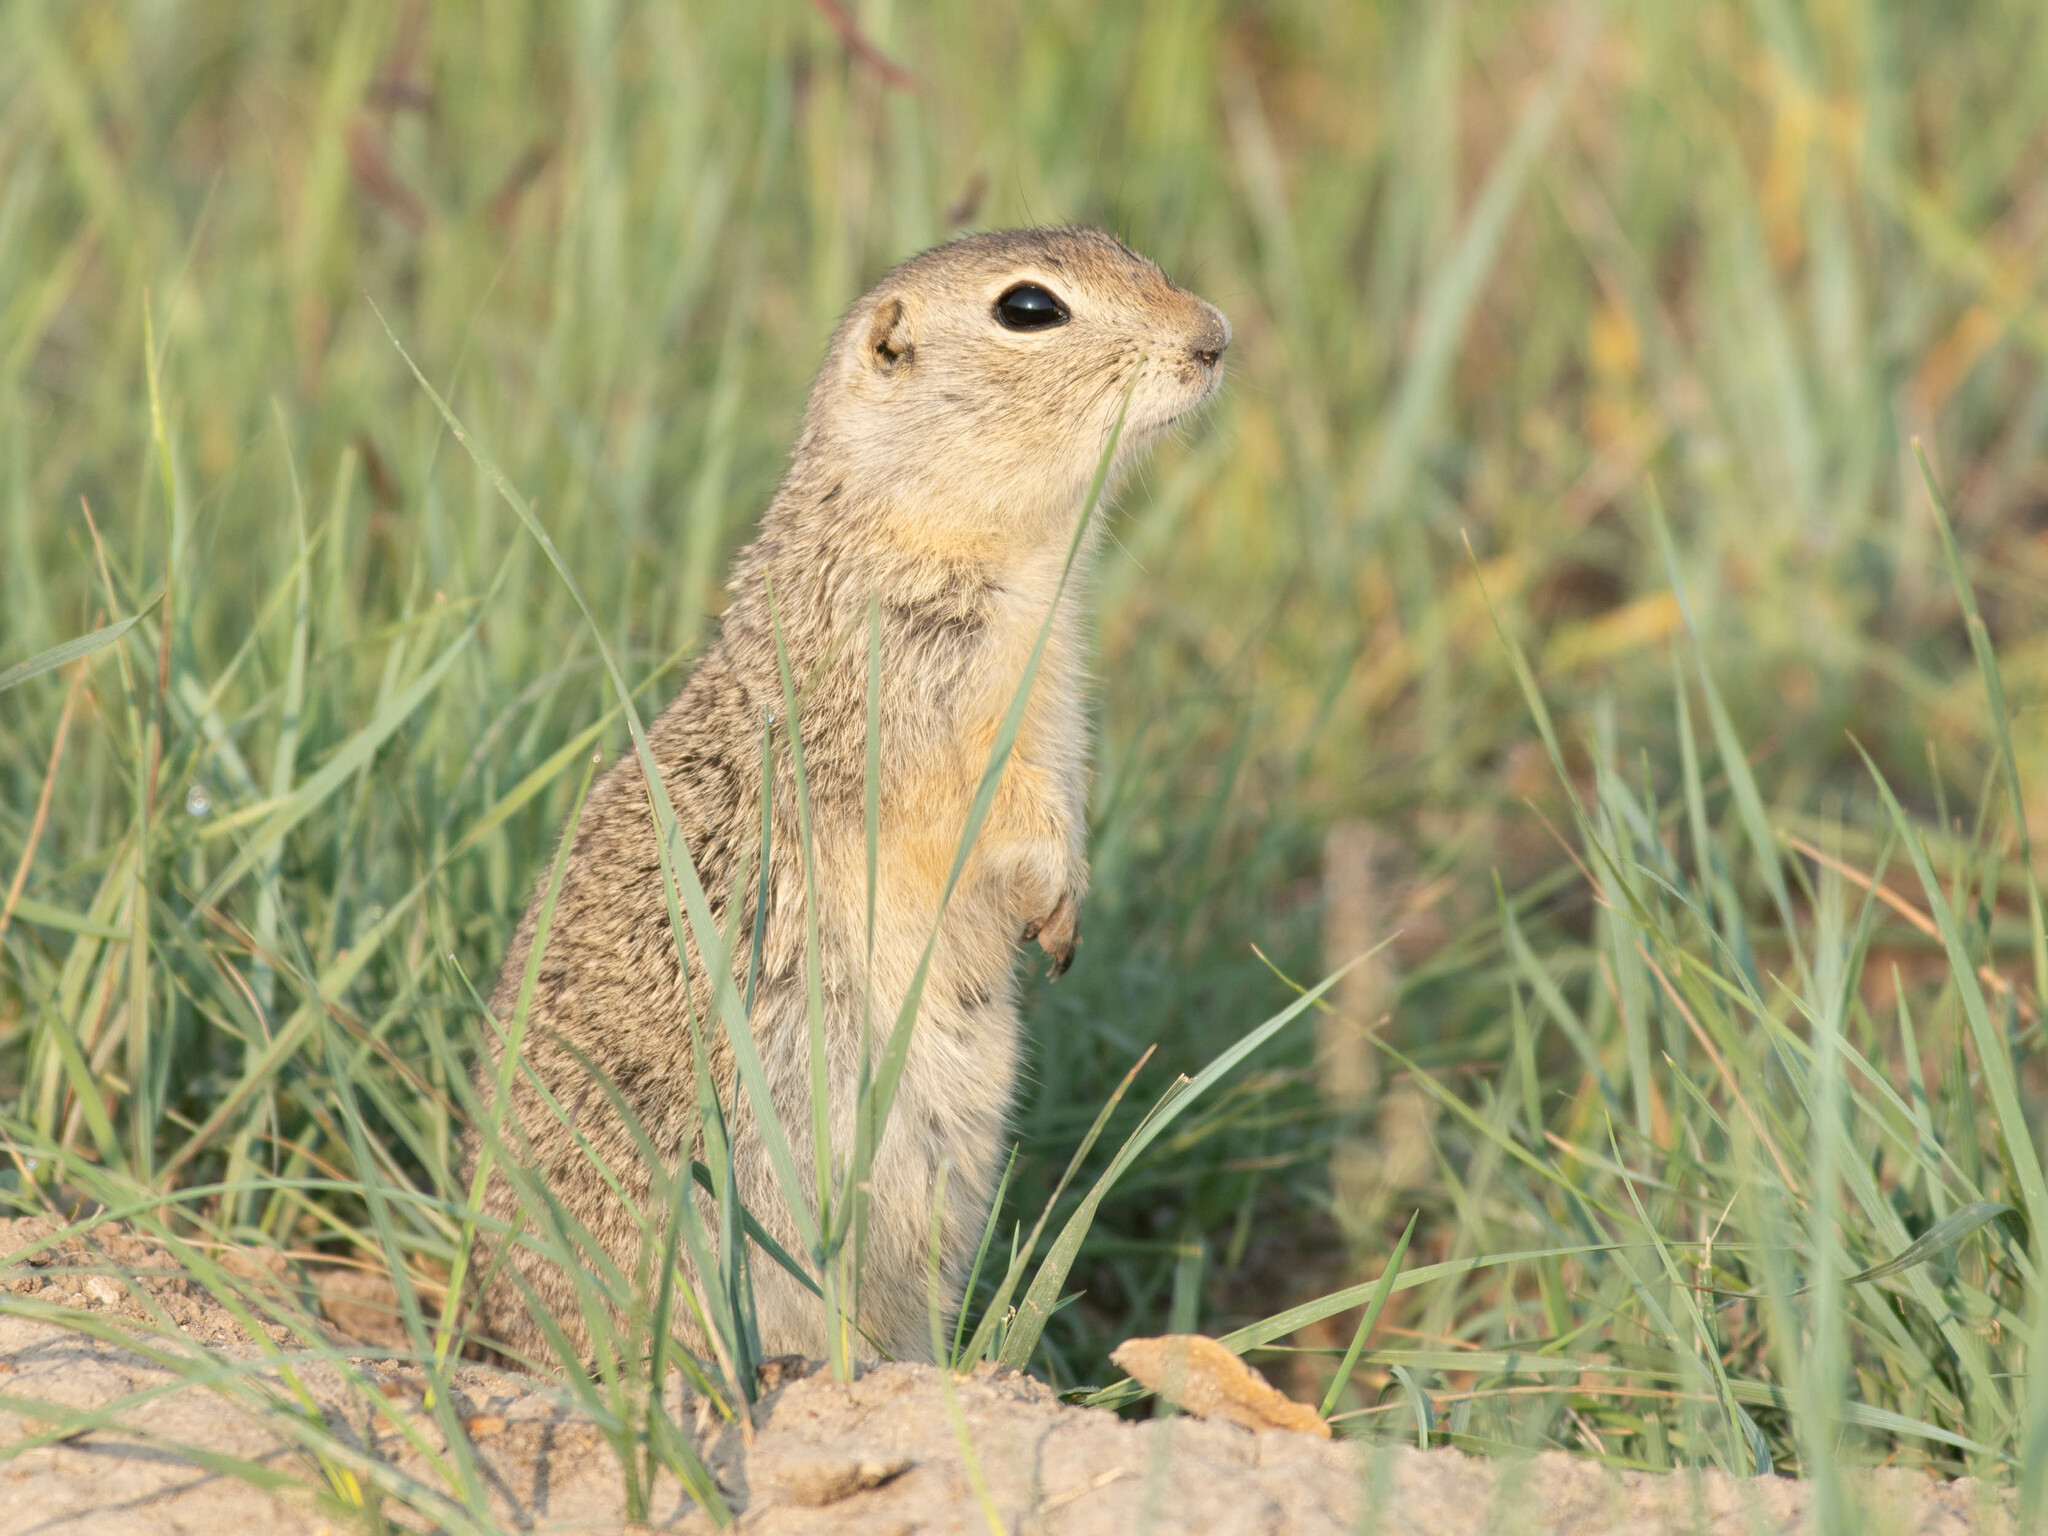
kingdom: Animalia
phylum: Chordata
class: Mammalia
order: Rodentia
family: Sciuridae
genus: Urocitellus
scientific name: Urocitellus richardsonii
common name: Richardson's ground squirrel
